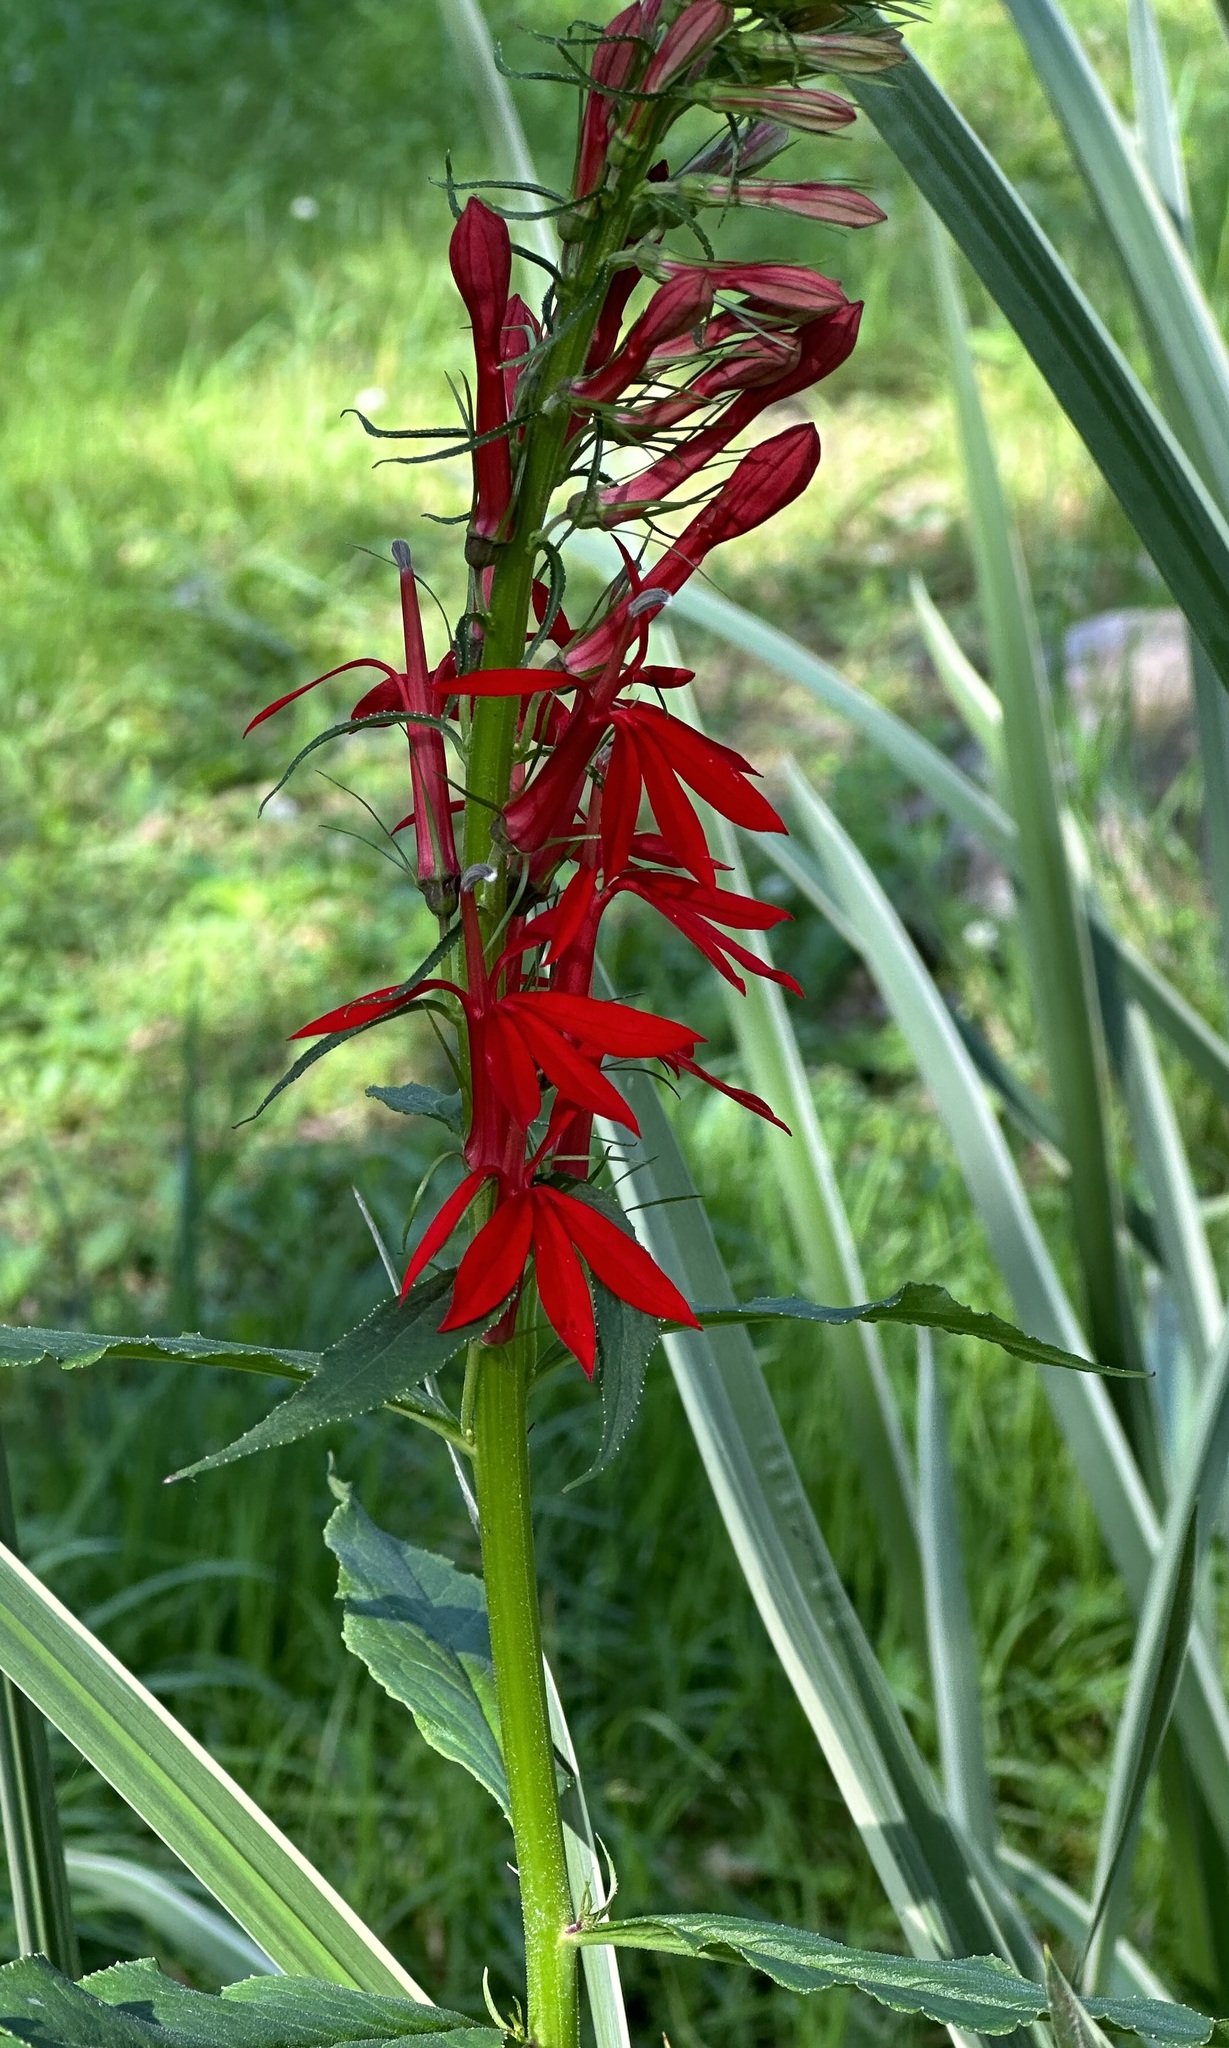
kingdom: Plantae
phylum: Tracheophyta
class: Magnoliopsida
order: Asterales
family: Campanulaceae
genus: Lobelia
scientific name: Lobelia cardinalis
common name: Cardinal flower
